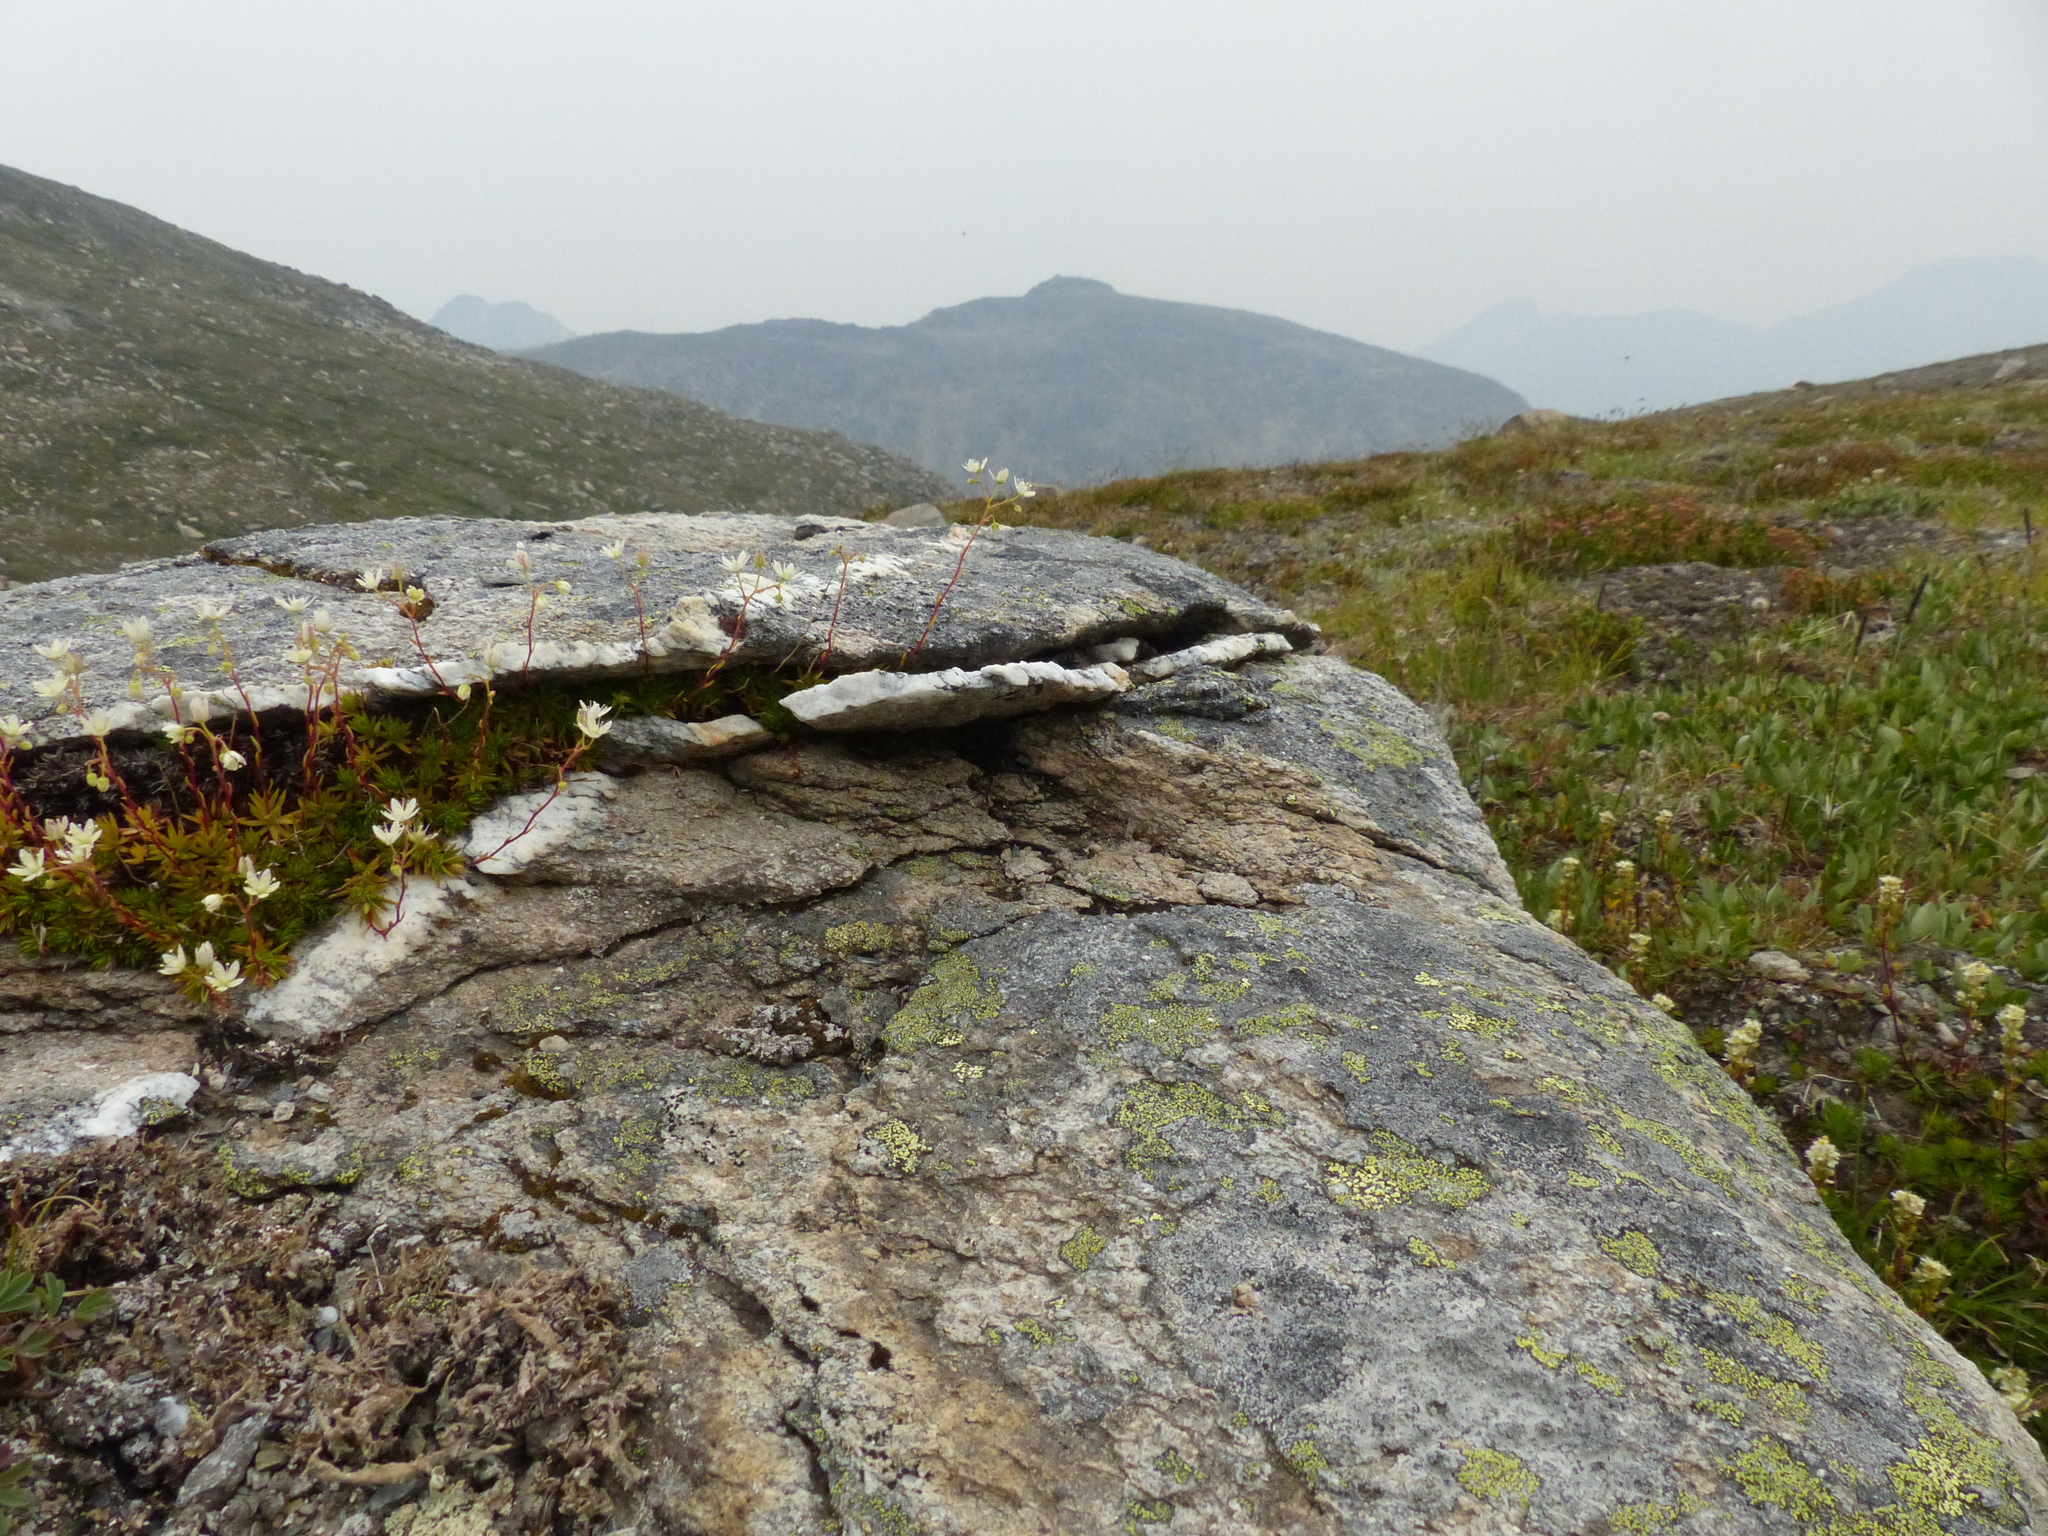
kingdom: Plantae
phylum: Tracheophyta
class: Magnoliopsida
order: Saxifragales
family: Saxifragaceae
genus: Saxifraga
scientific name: Saxifraga bronchialis
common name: Matted saxifrage
